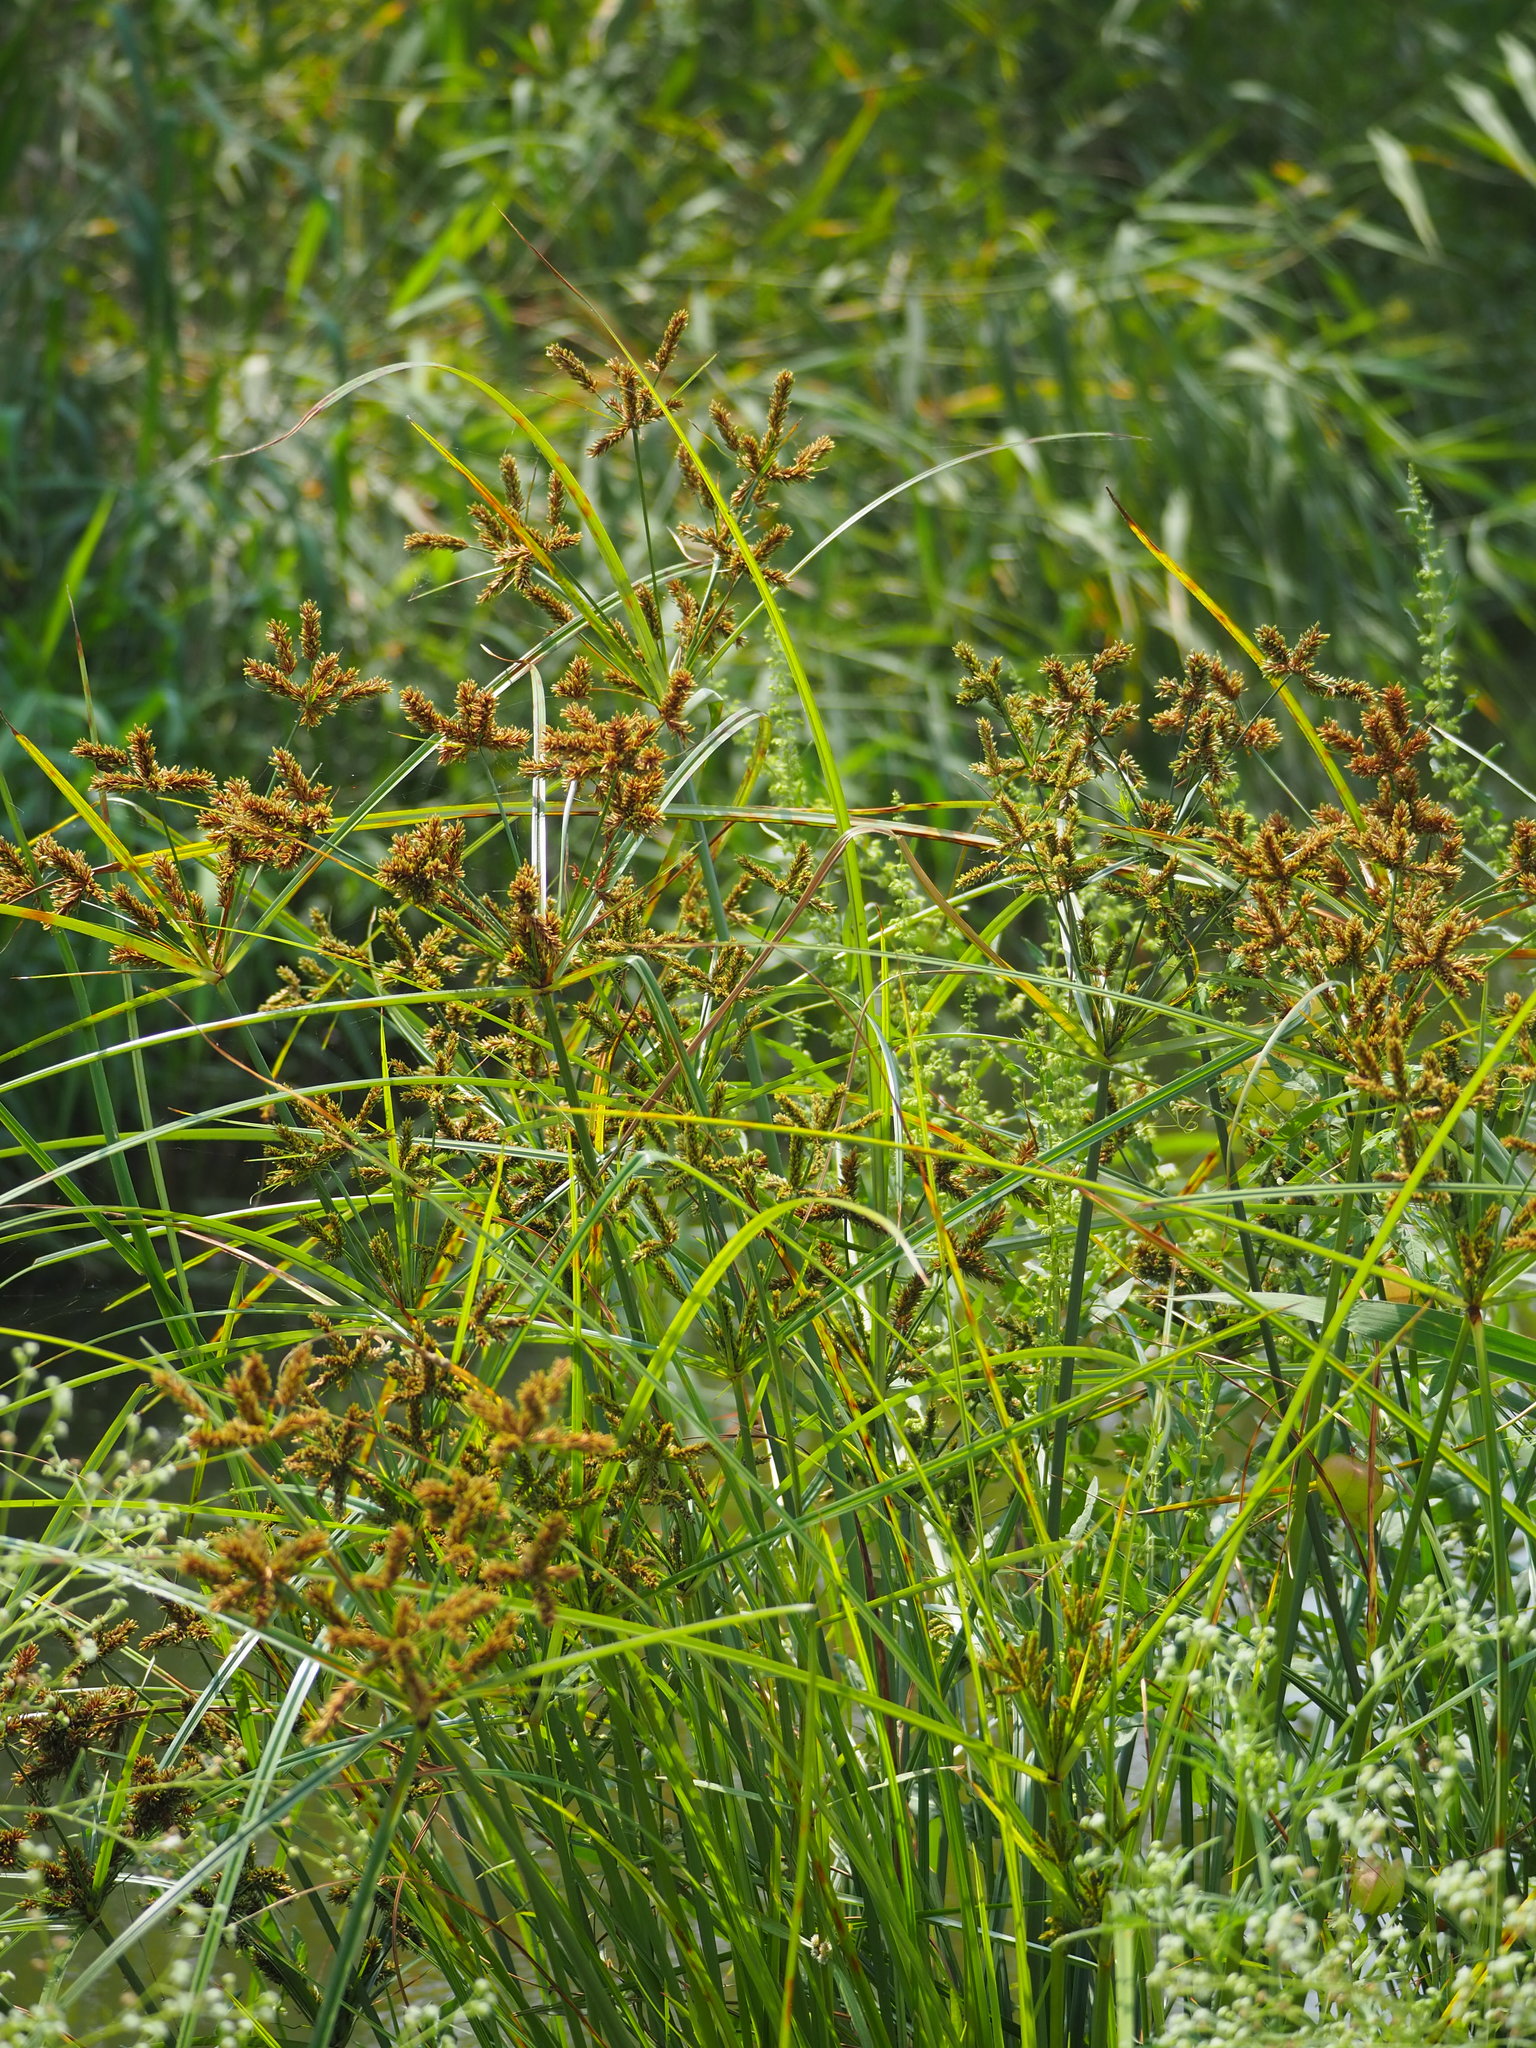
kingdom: Plantae
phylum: Tracheophyta
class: Liliopsida
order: Poales
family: Cyperaceae
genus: Cyperus
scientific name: Cyperus imbricatus
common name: Shingle flatsedge
